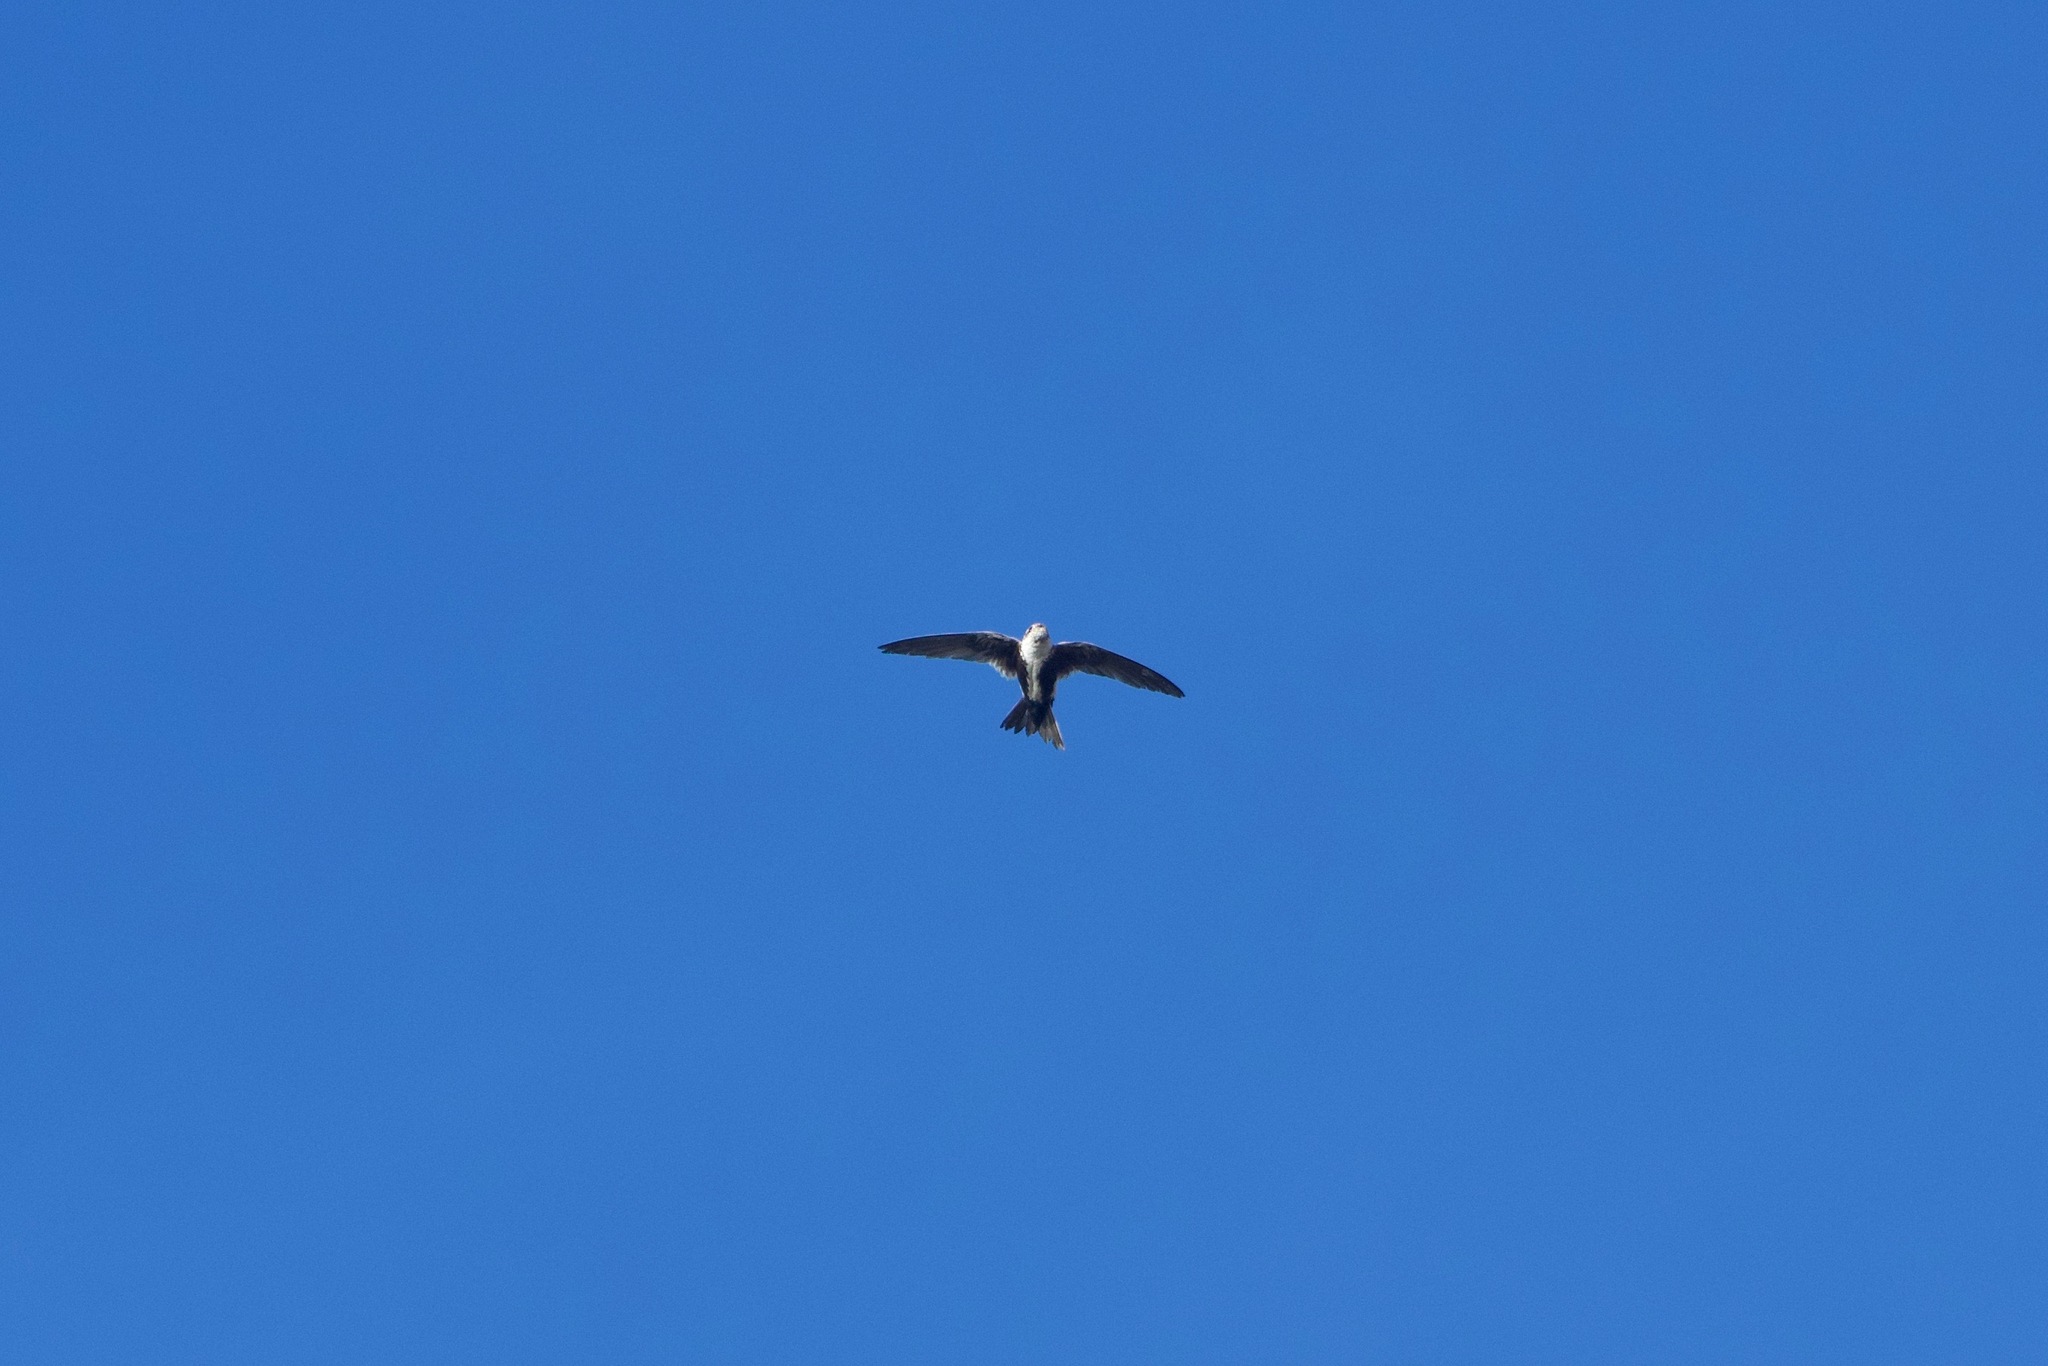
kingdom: Animalia
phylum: Chordata
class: Aves
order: Apodiformes
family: Apodidae
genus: Aeronautes
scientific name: Aeronautes saxatalis
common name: White-throated swift
